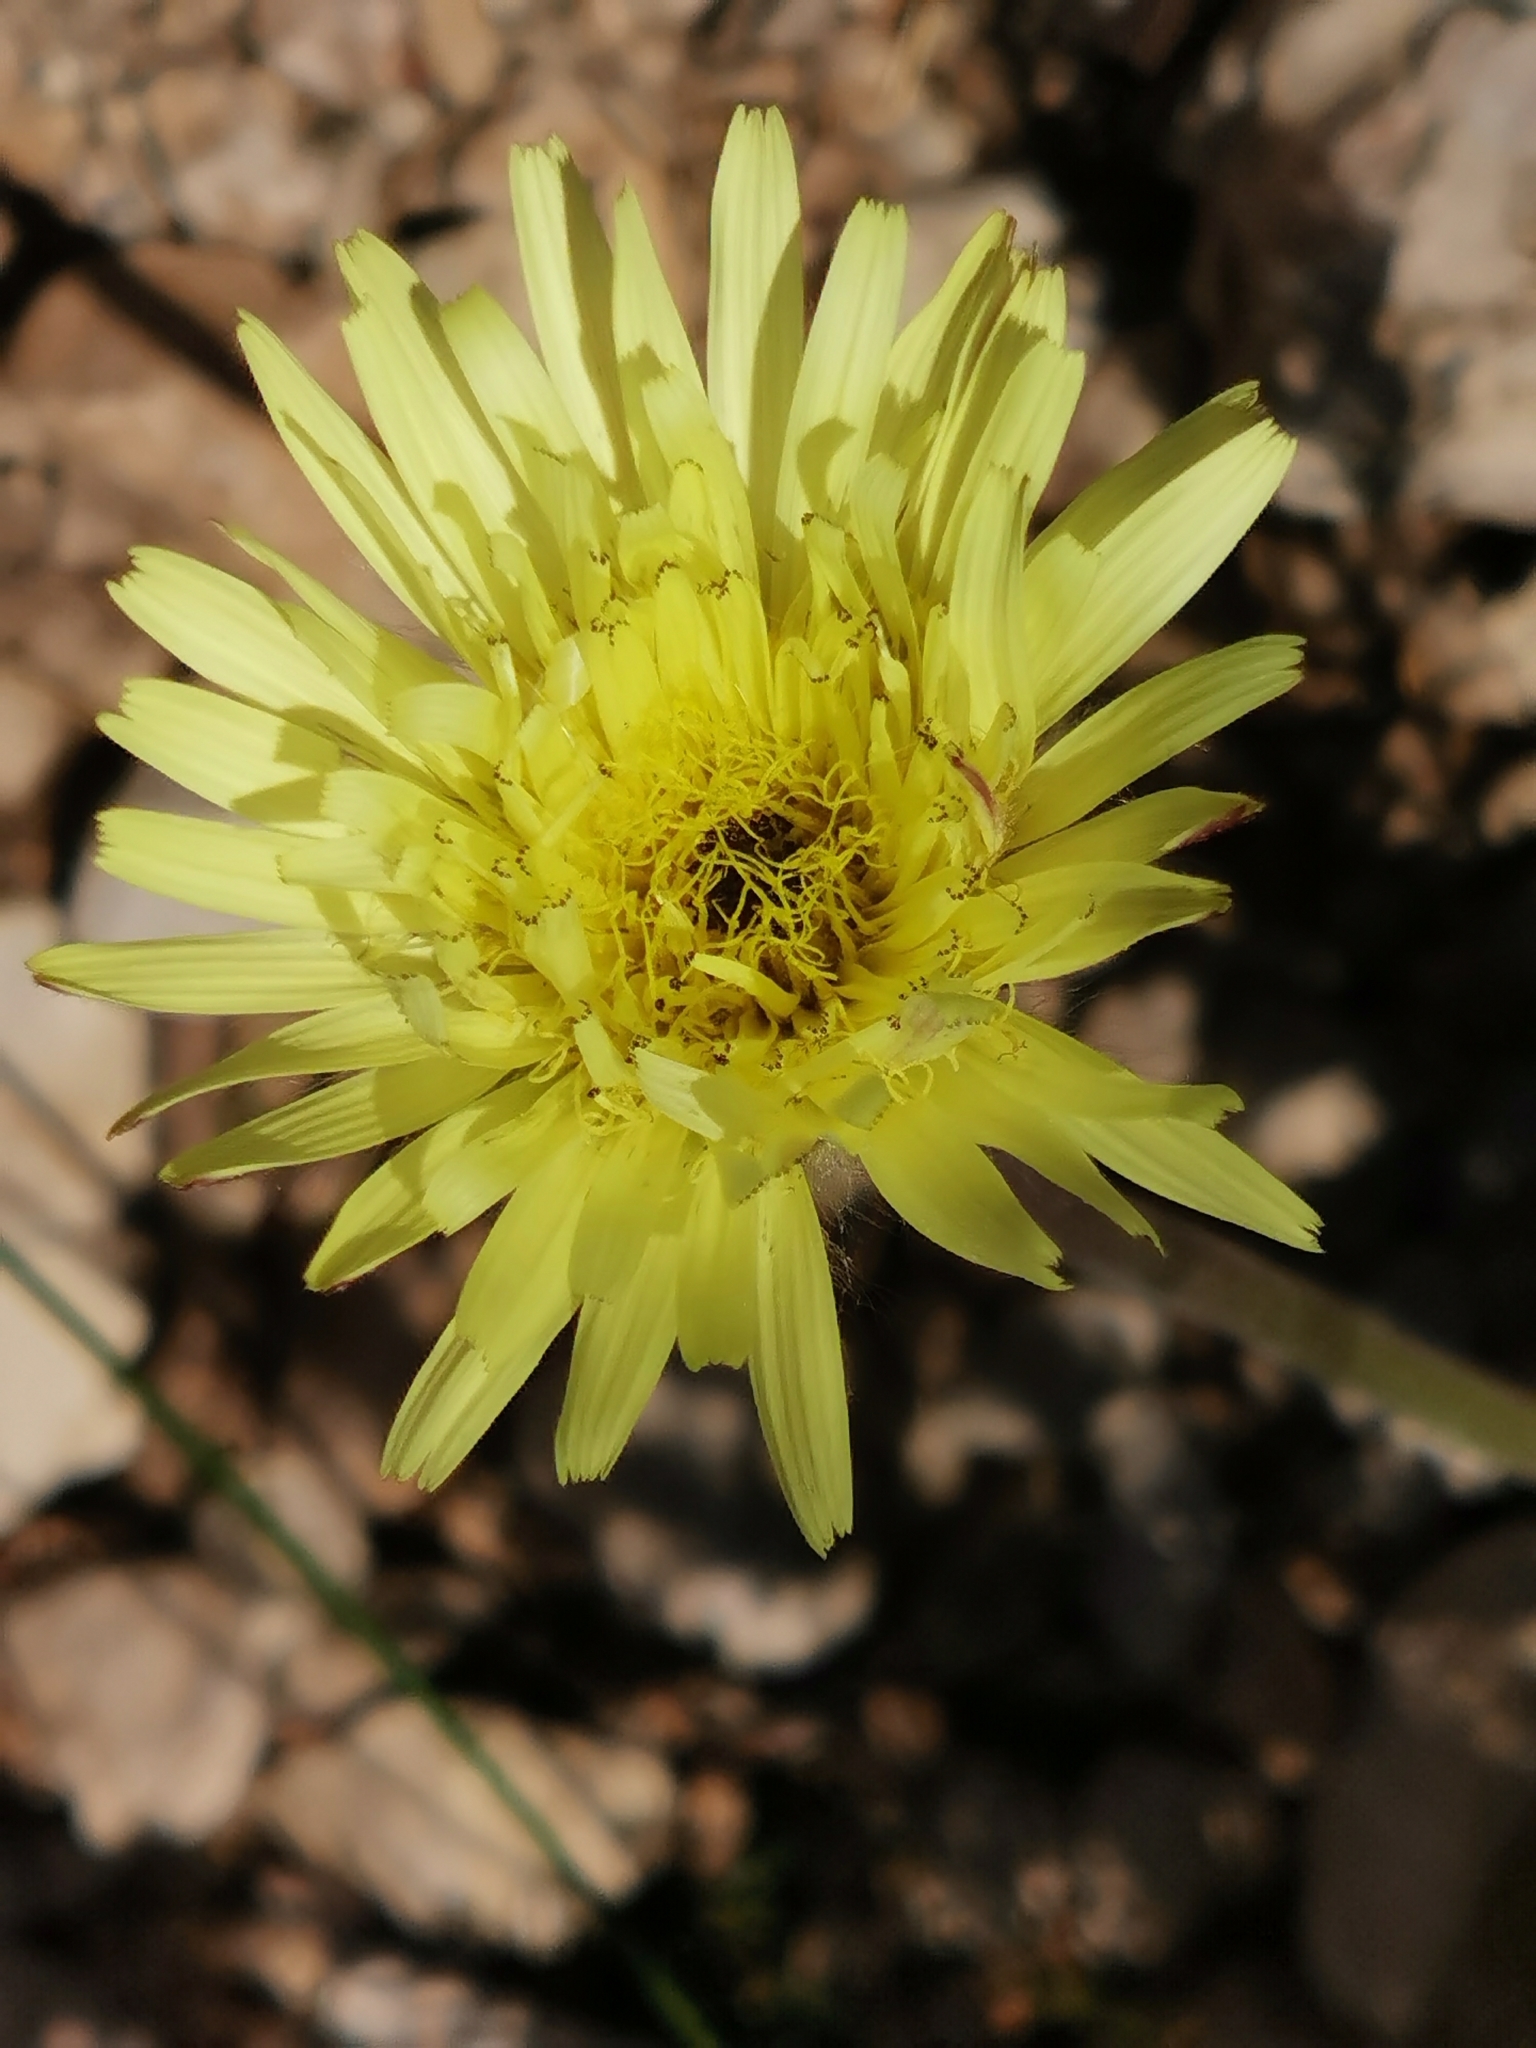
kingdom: Plantae
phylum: Tracheophyta
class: Magnoliopsida
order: Asterales
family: Asteraceae
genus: Urospermum
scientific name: Urospermum dalechampii
